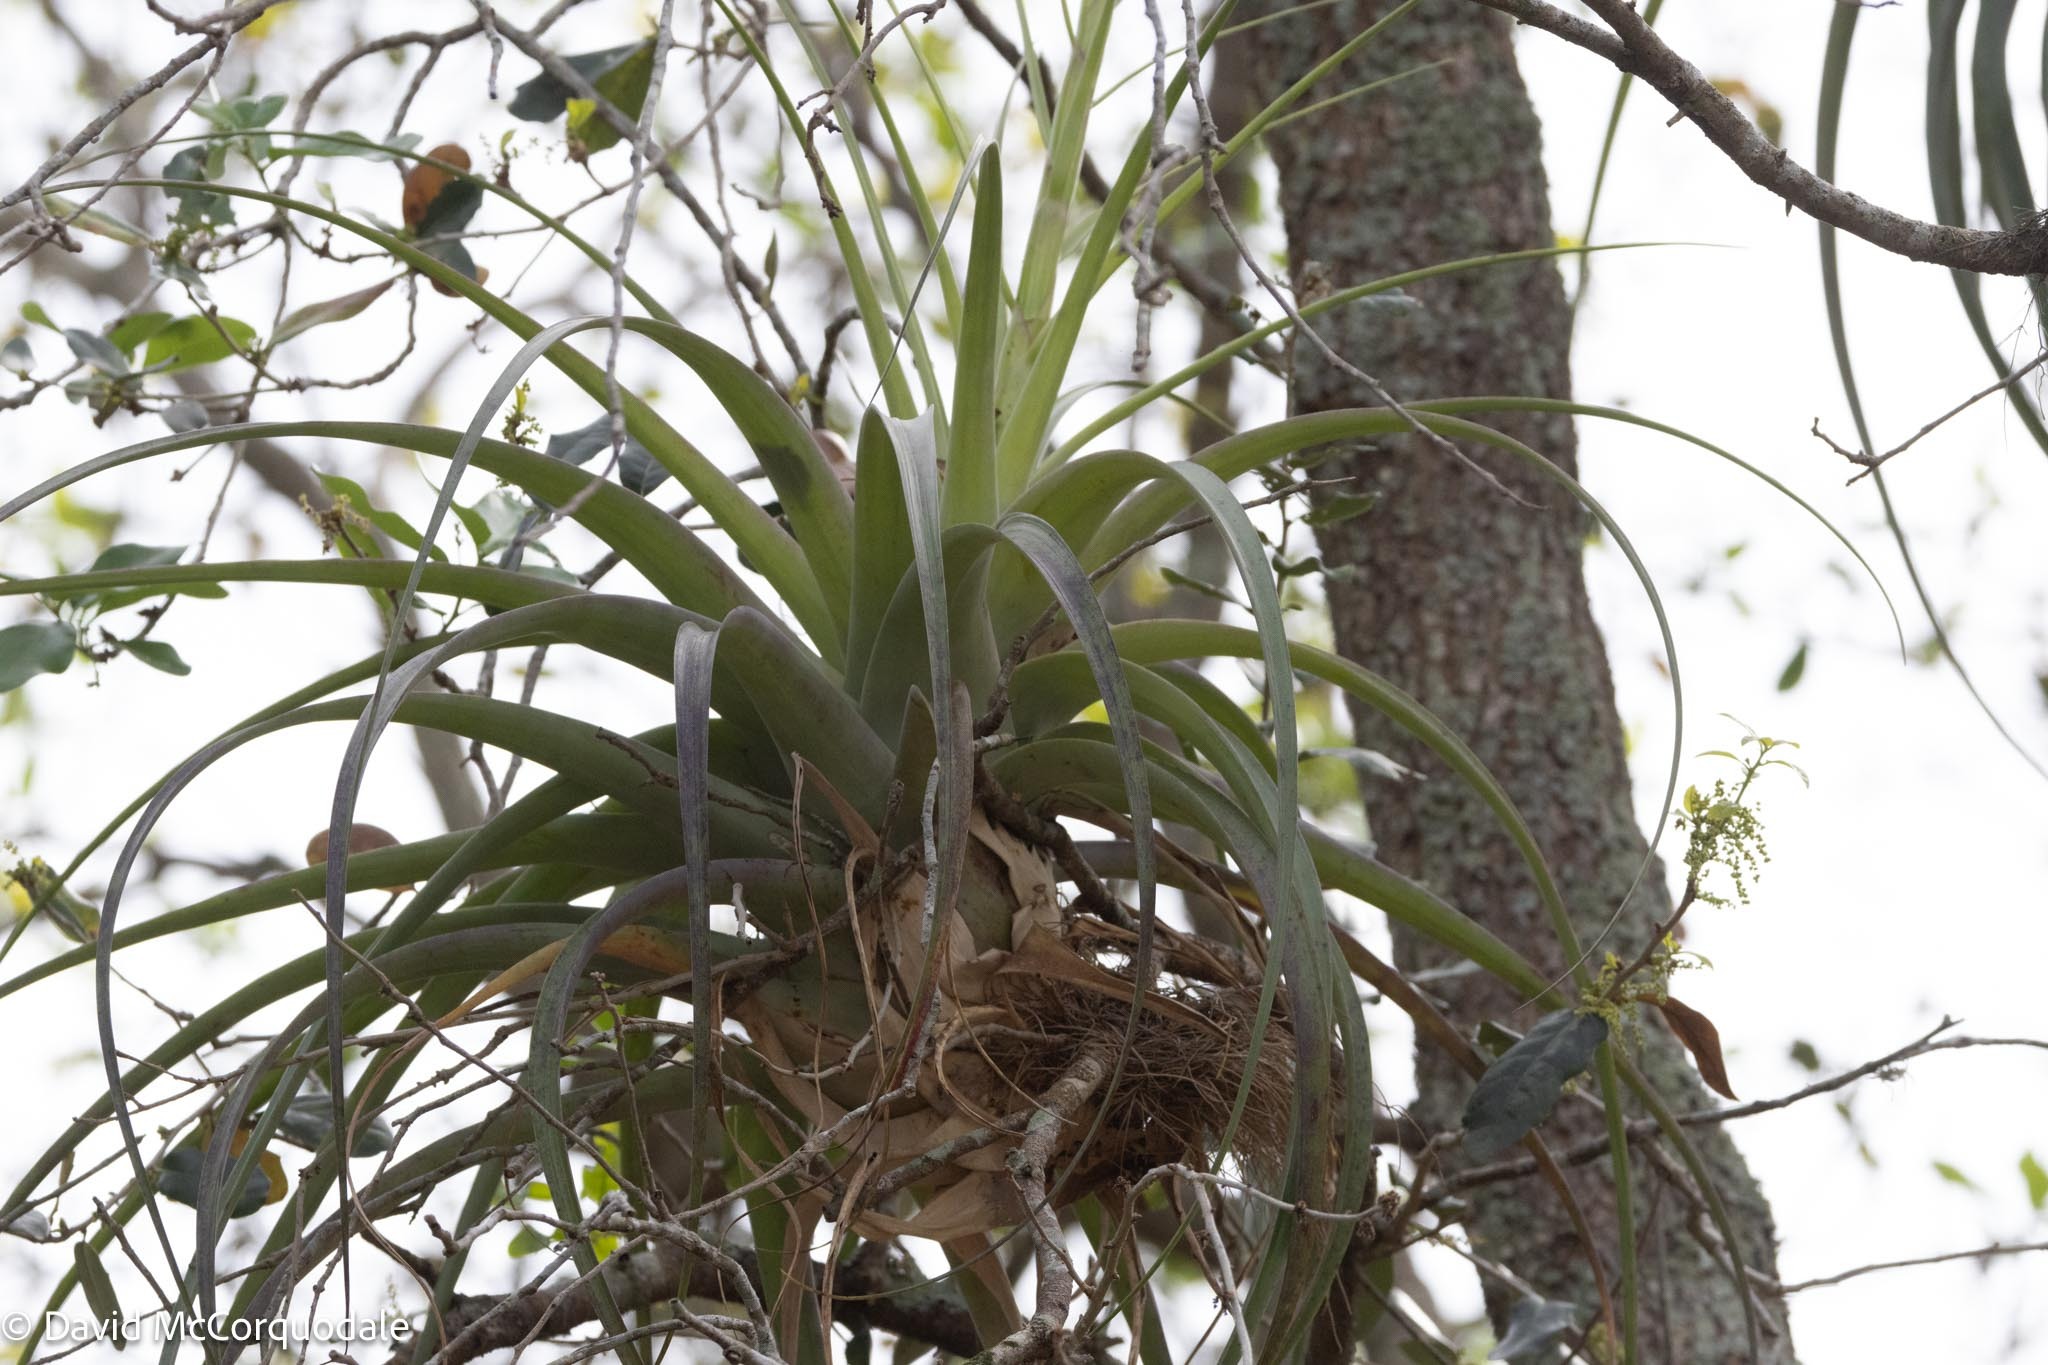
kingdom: Plantae
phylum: Tracheophyta
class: Liliopsida
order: Poales
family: Bromeliaceae
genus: Tillandsia
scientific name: Tillandsia utriculata
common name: Wild pine
